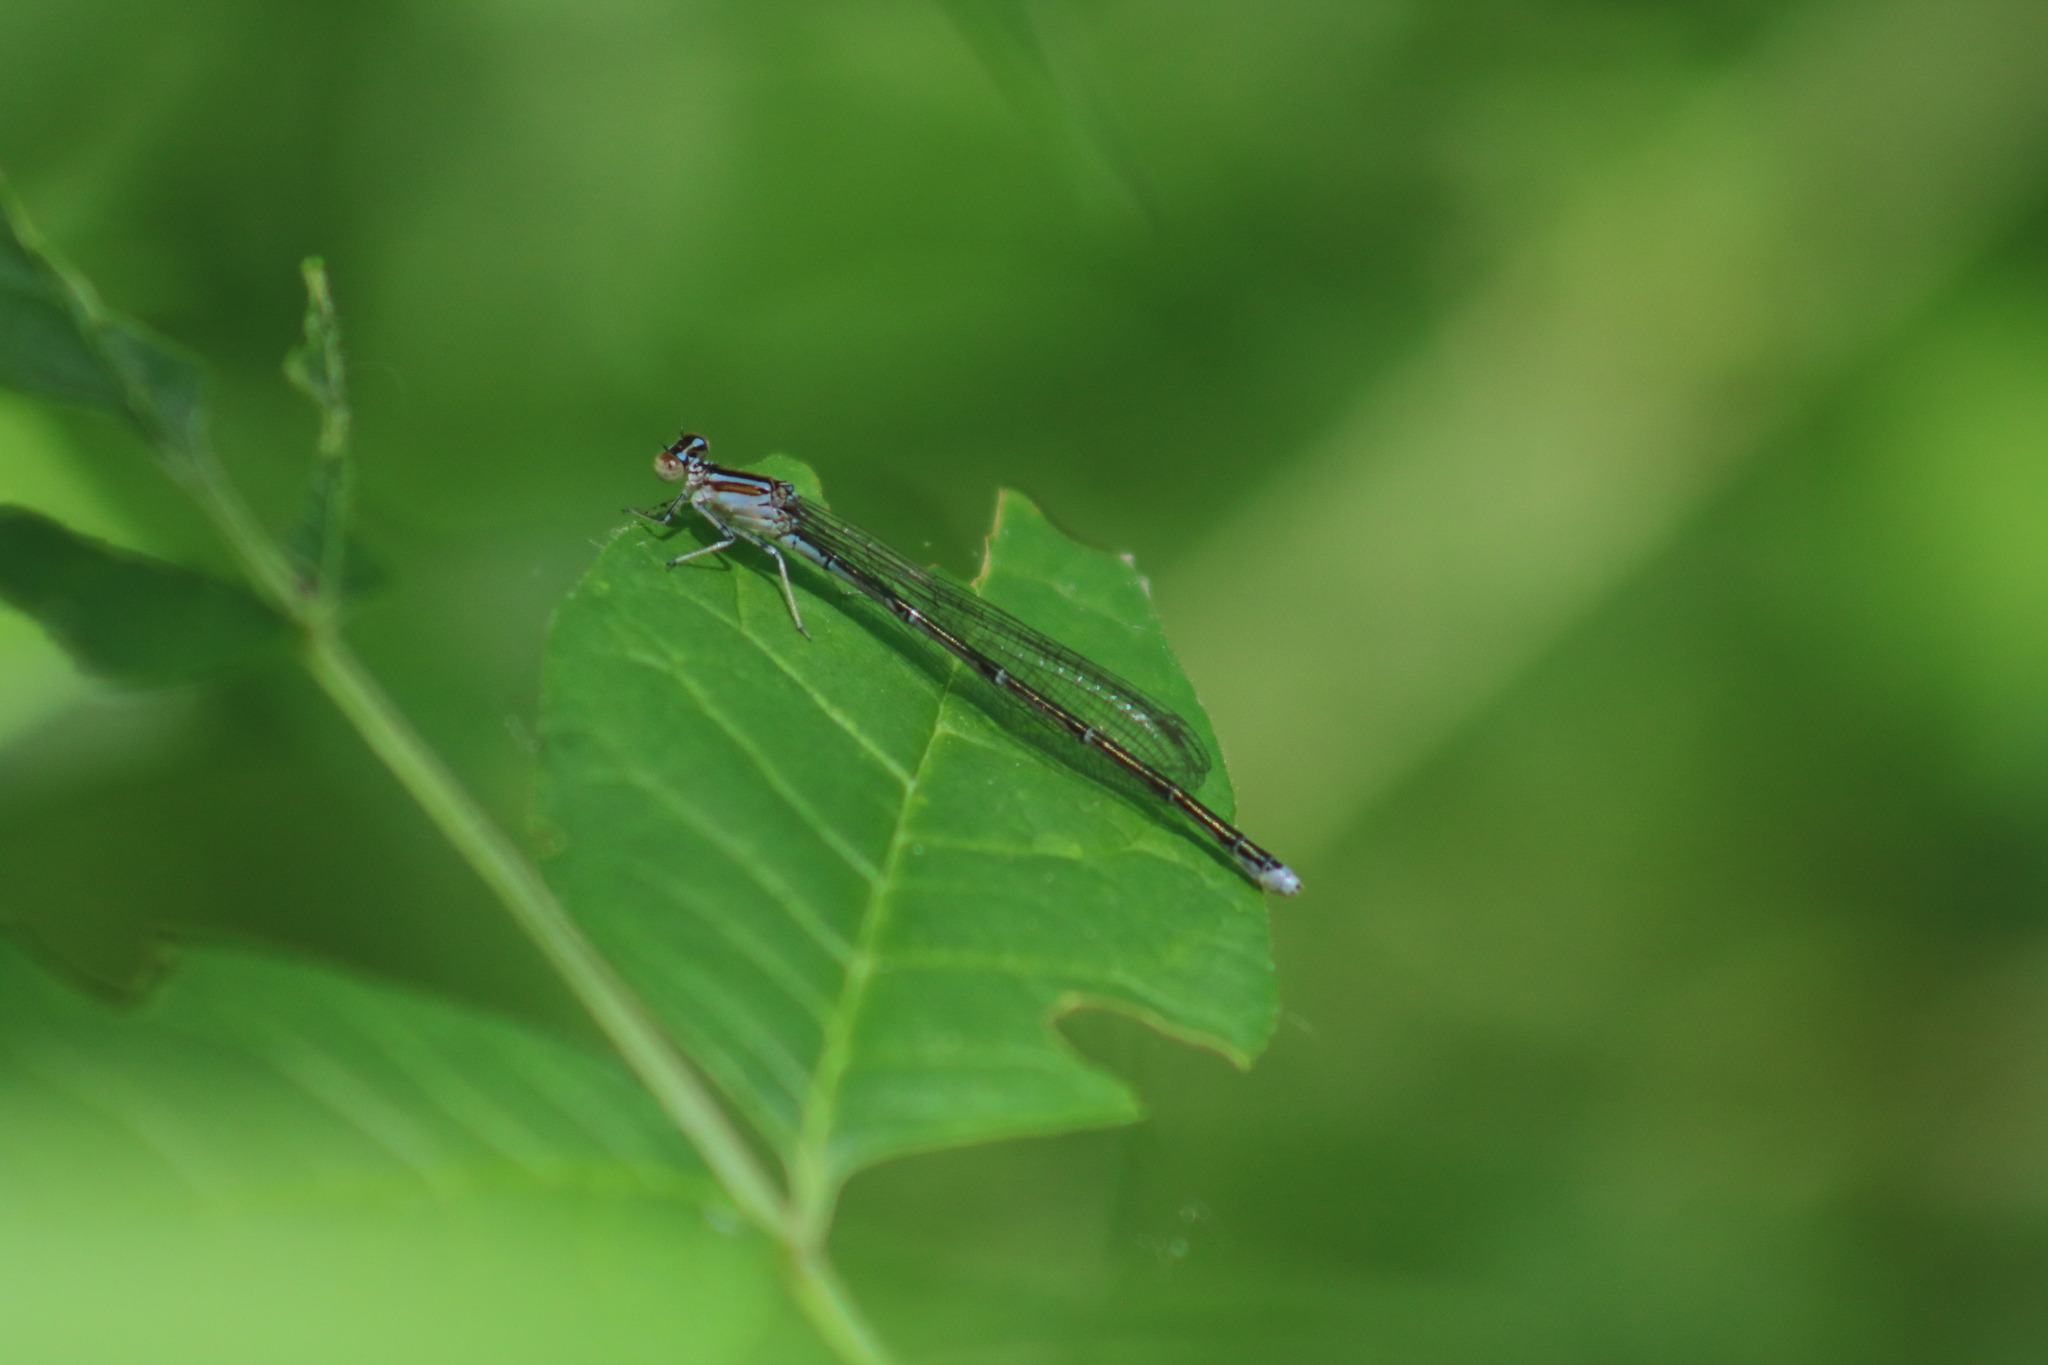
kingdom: Animalia
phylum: Arthropoda
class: Insecta
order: Odonata
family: Coenagrionidae
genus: Enallagma
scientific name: Enallagma exsulans
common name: Stream bluet
